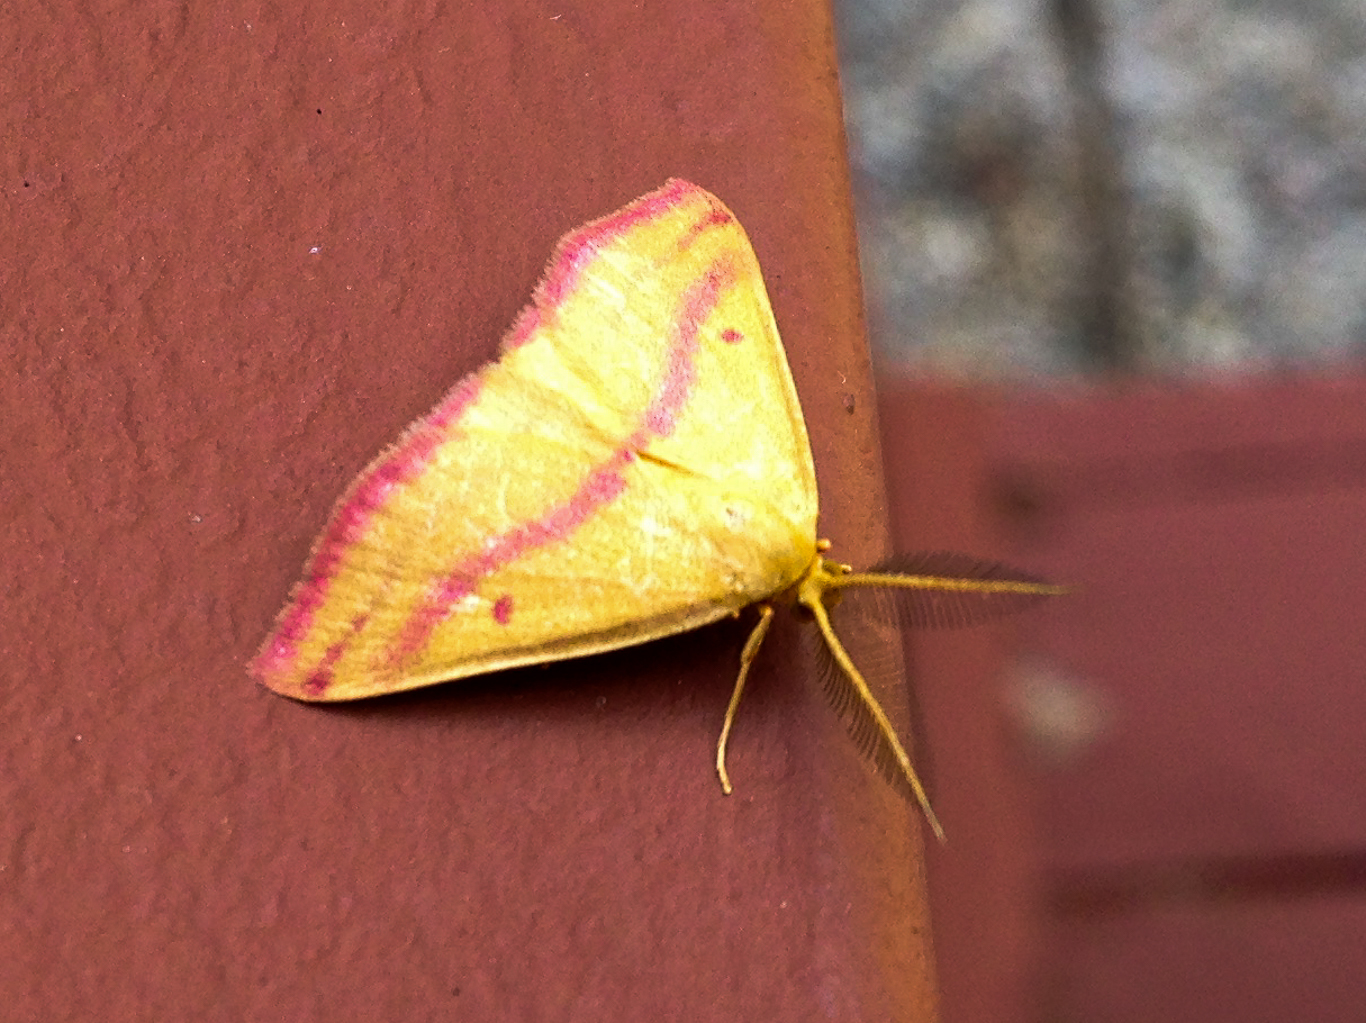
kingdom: Animalia
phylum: Arthropoda
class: Insecta
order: Lepidoptera
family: Geometridae
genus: Haematopis
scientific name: Haematopis grataria
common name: Chickweed geometer
